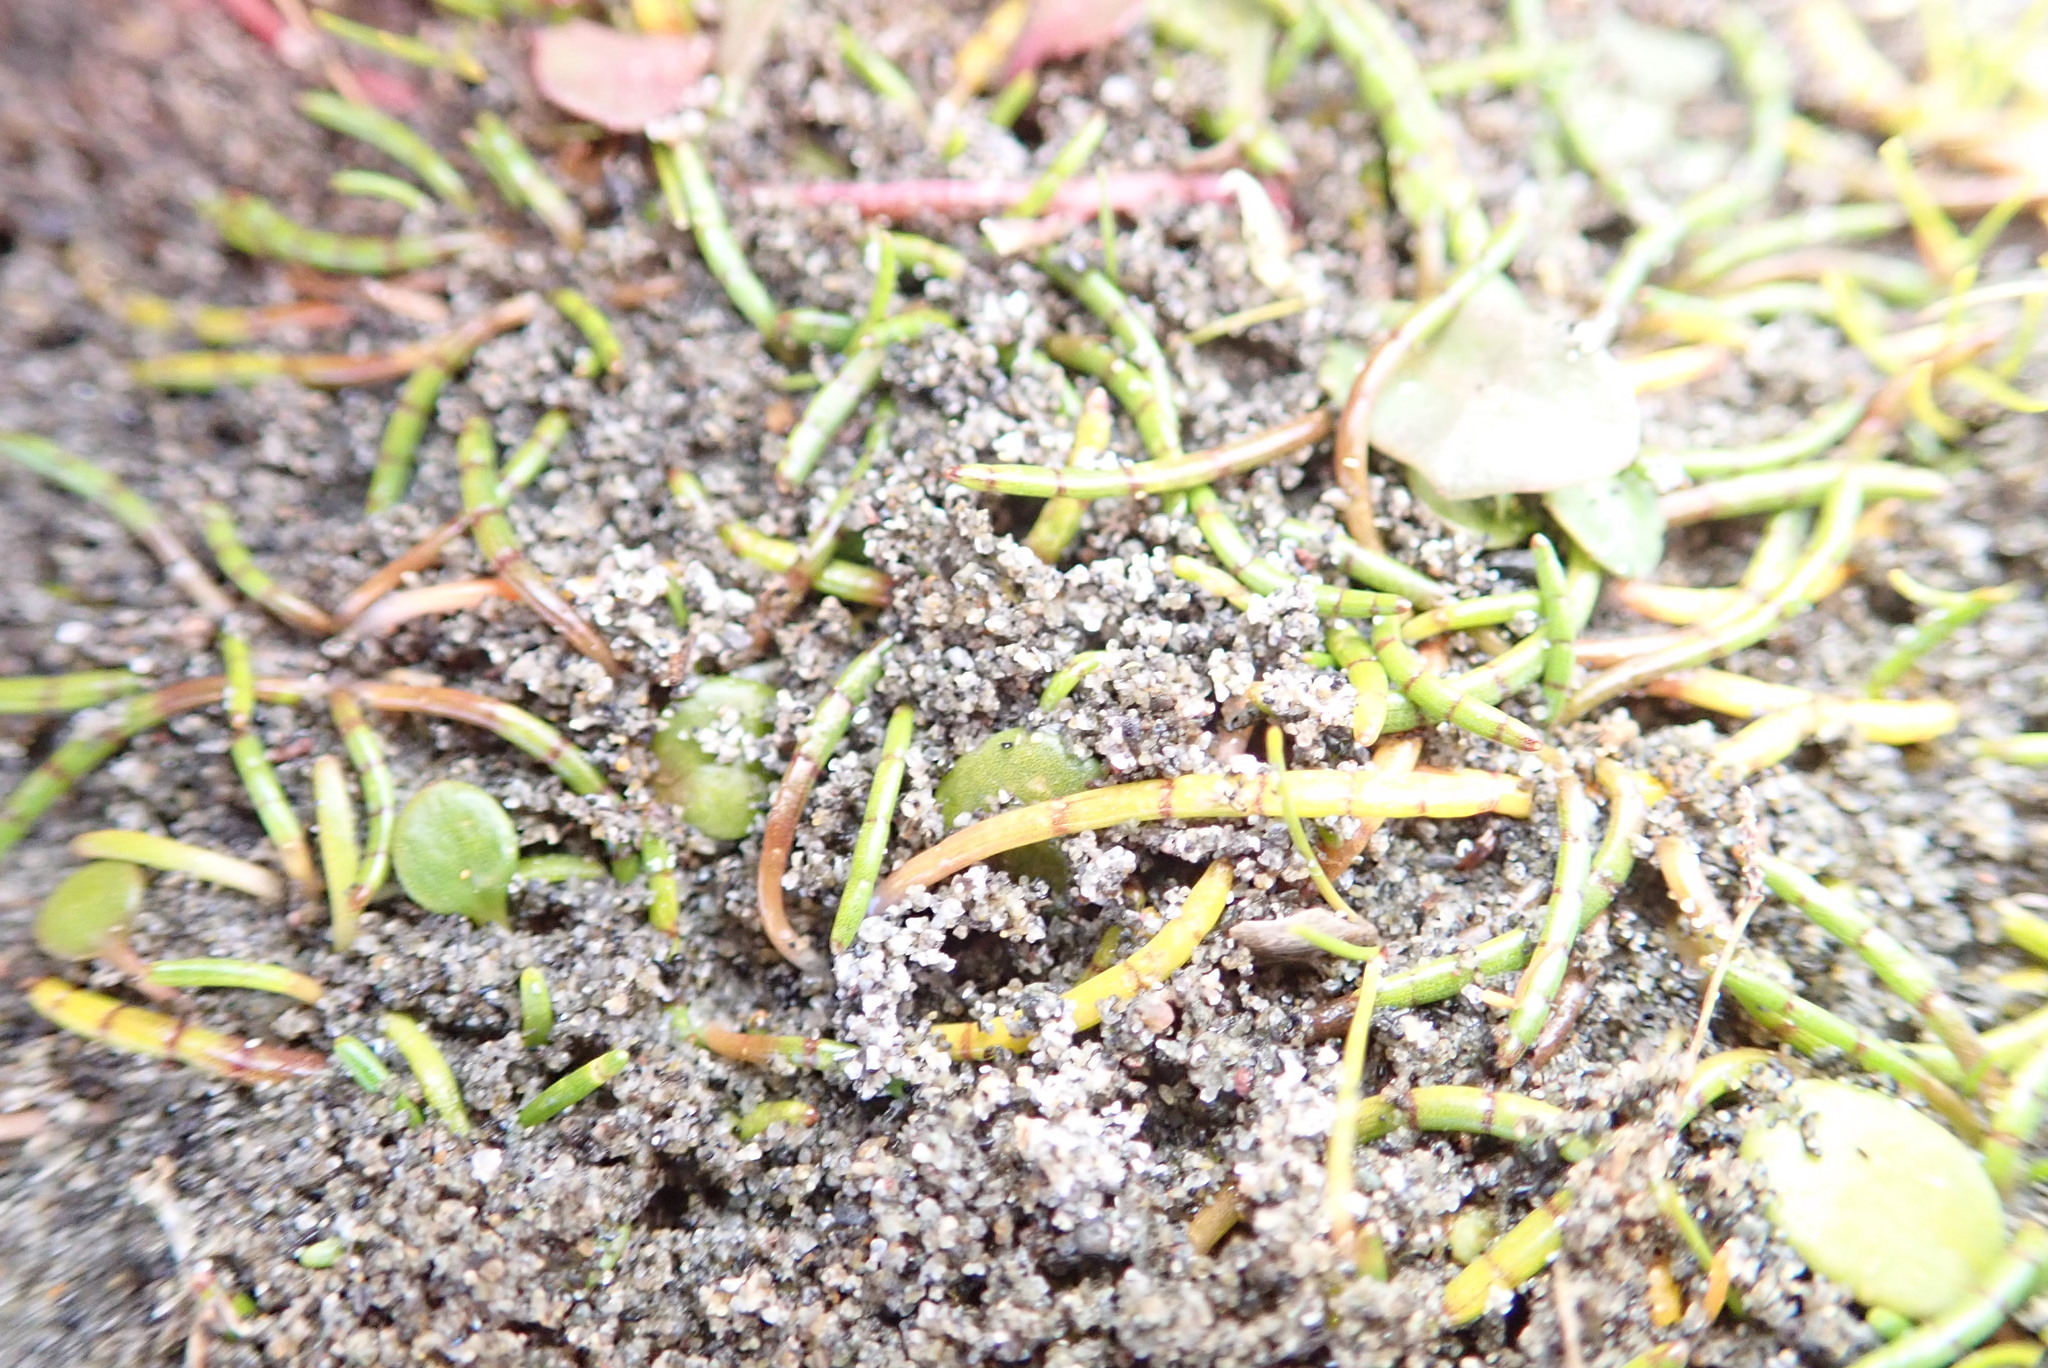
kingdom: Plantae
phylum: Tracheophyta
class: Magnoliopsida
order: Apiales
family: Apiaceae
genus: Lilaeopsis
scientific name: Lilaeopsis novae-zelandiae
